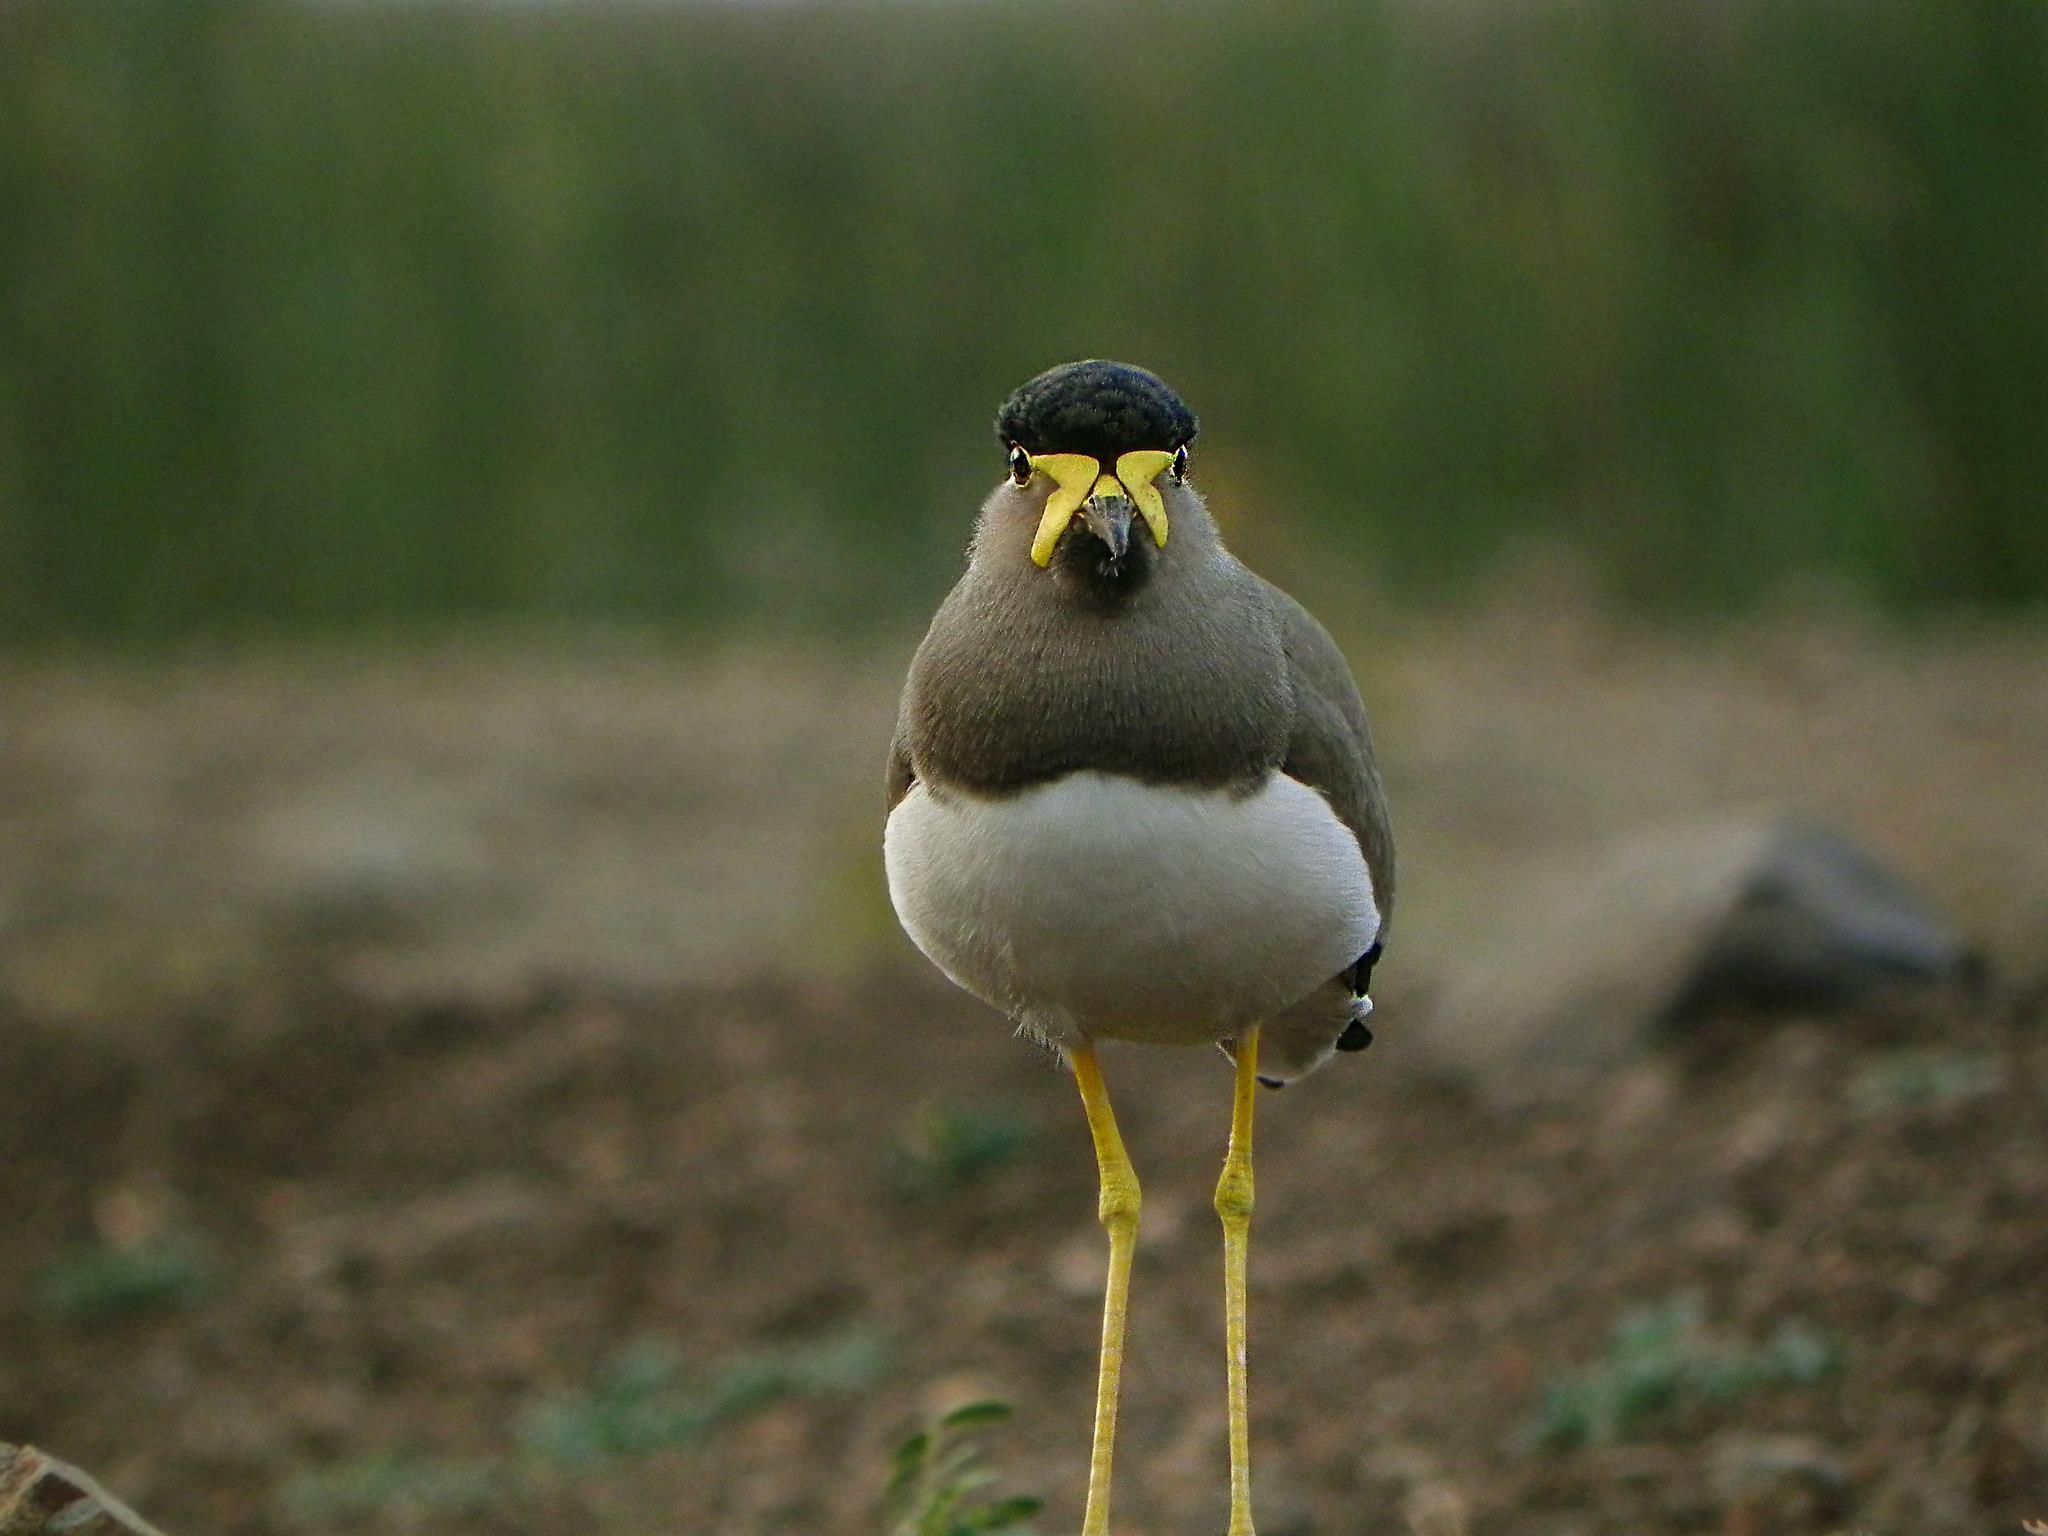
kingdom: Animalia
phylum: Chordata
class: Aves
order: Charadriiformes
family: Charadriidae
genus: Vanellus
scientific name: Vanellus malabaricus
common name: Yellow-wattled lapwing
